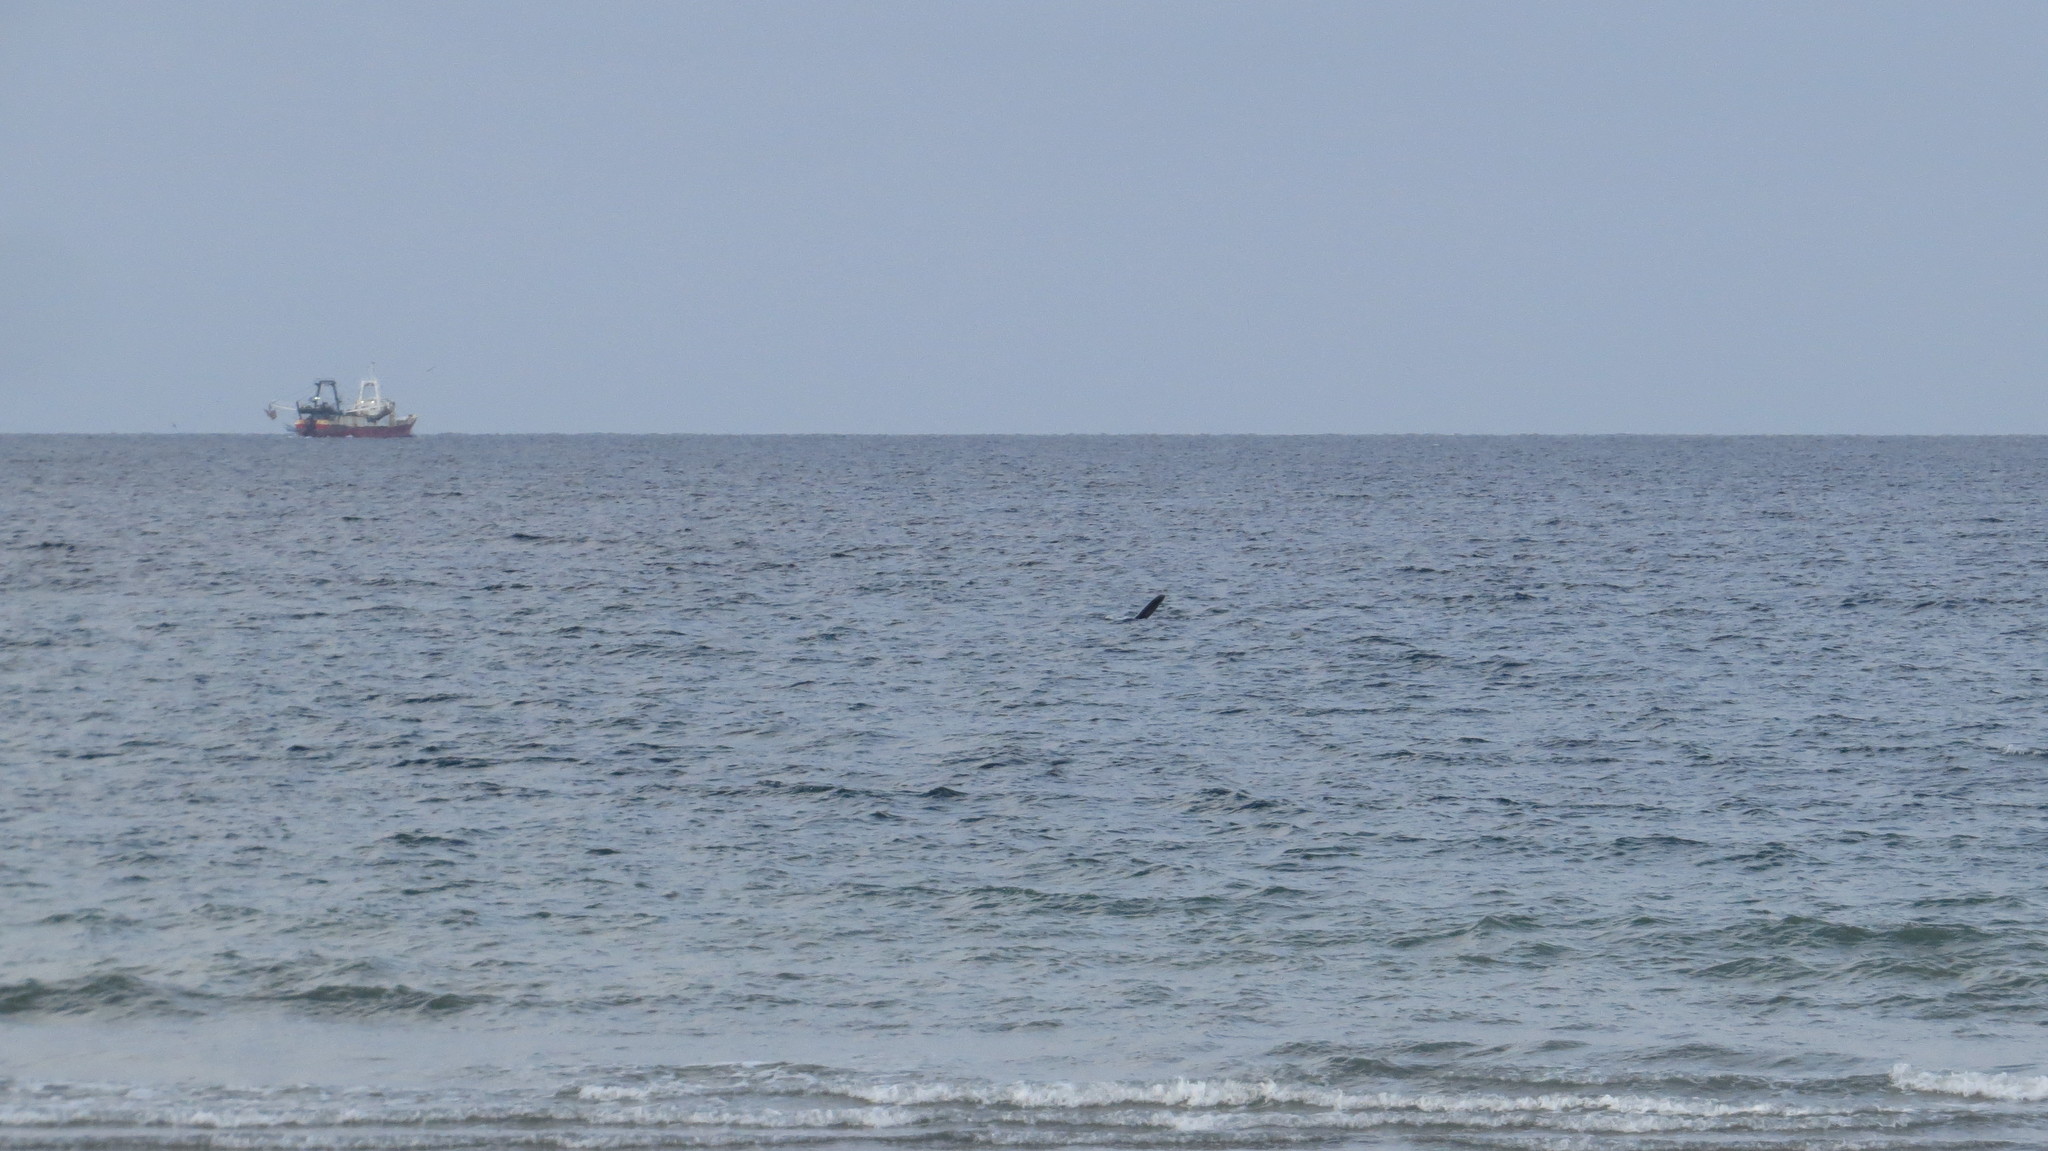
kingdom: Animalia
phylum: Chordata
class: Mammalia
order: Cetacea
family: Balaenidae
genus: Eubalaena
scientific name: Eubalaena australis
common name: Southern right whale
